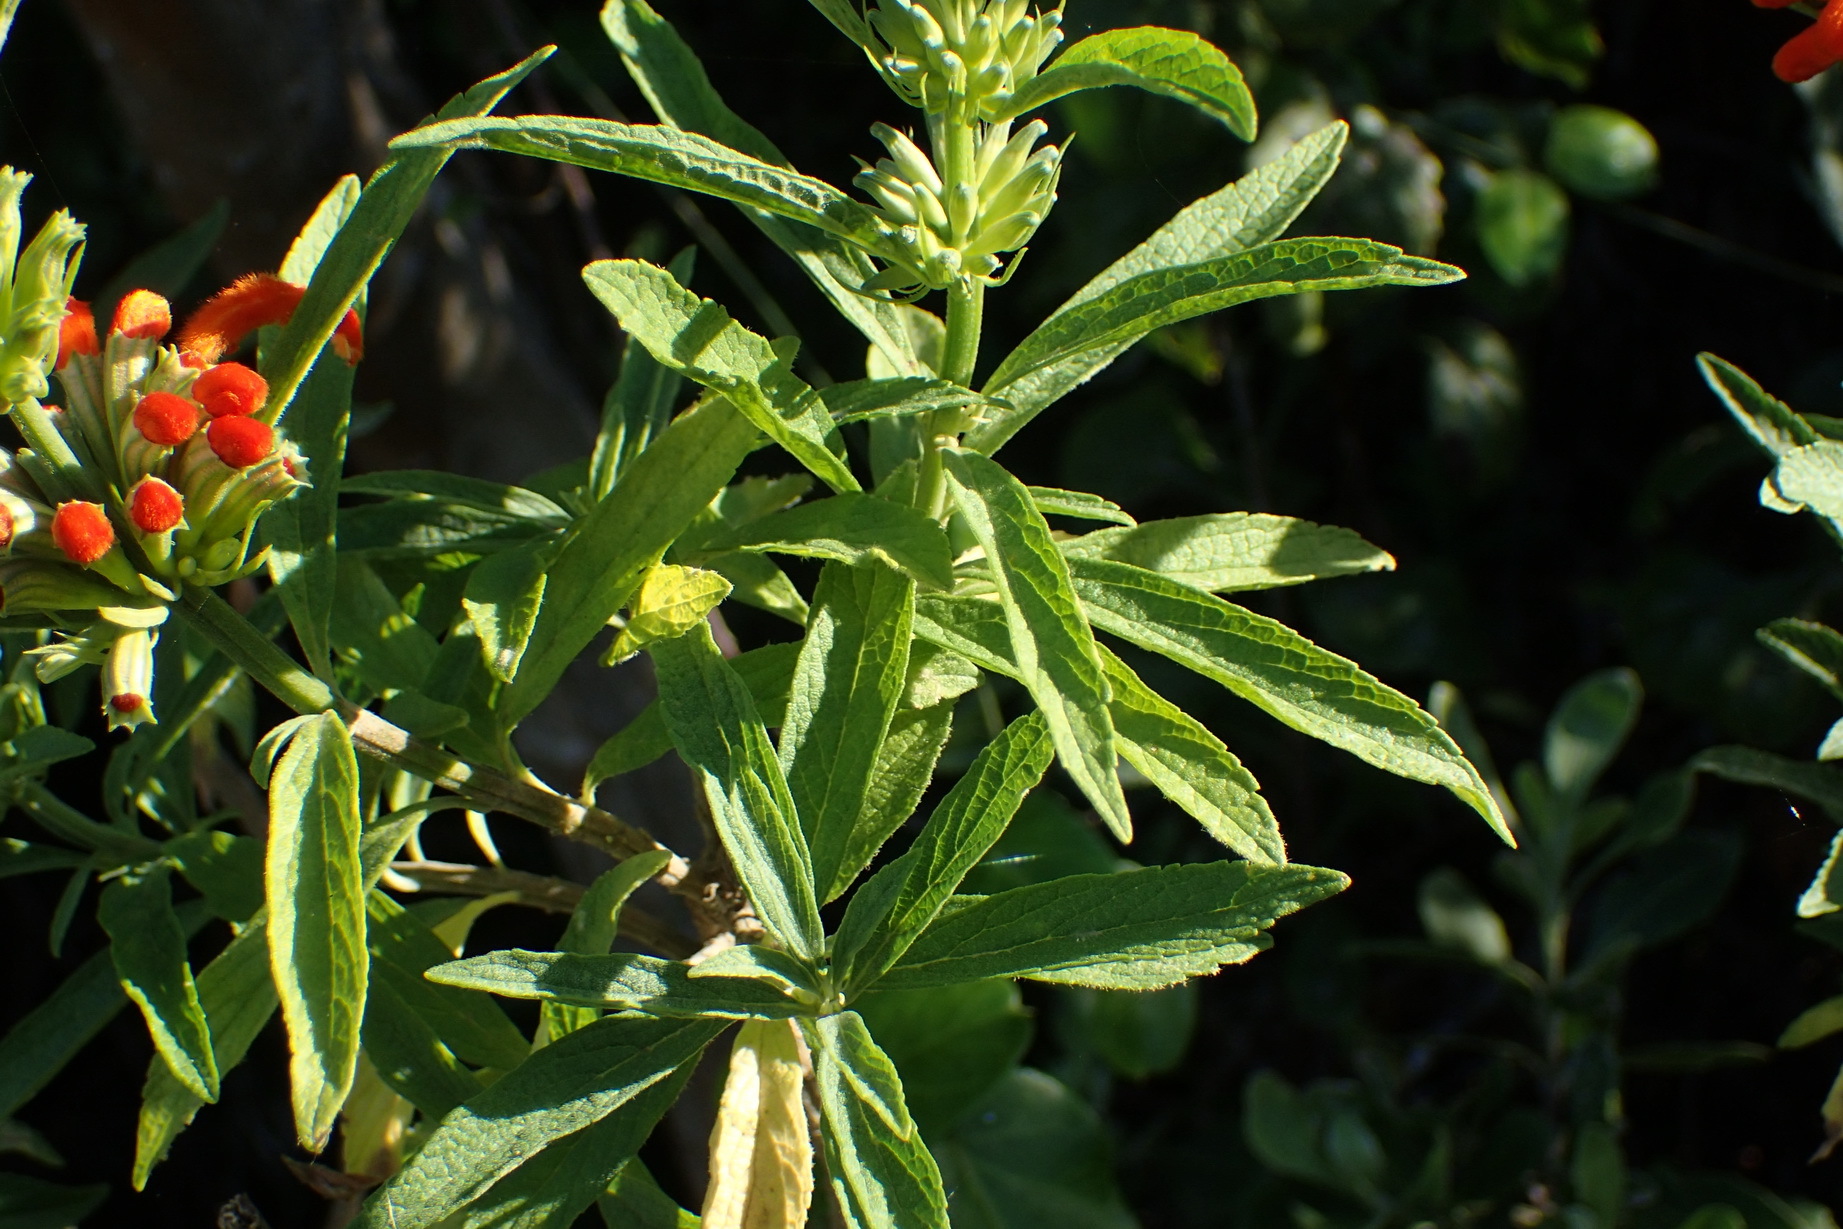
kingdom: Plantae
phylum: Tracheophyta
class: Magnoliopsida
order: Lamiales
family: Lamiaceae
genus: Leonotis
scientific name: Leonotis leonurus
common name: Lion's ear
